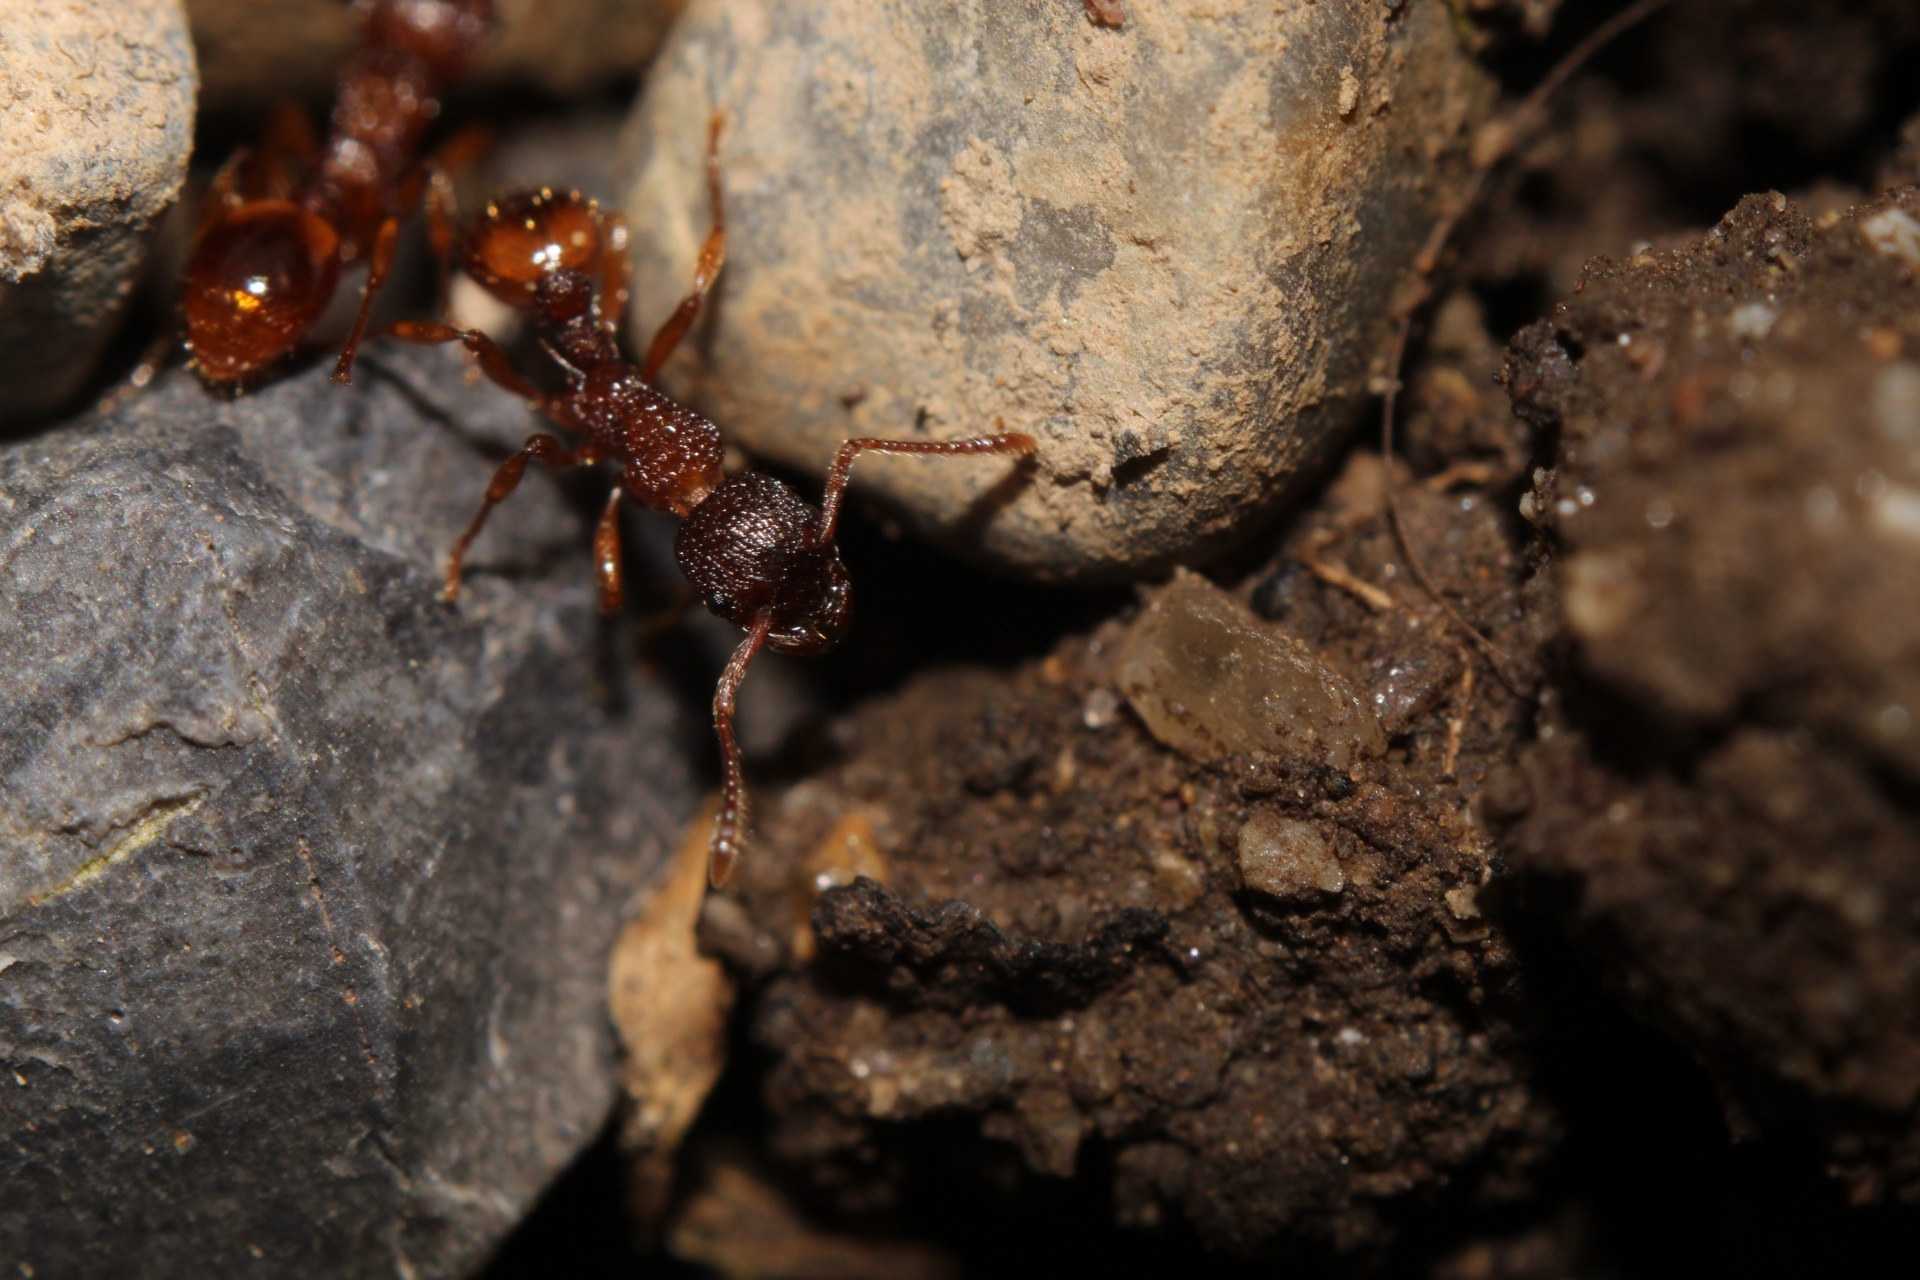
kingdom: Animalia
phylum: Arthropoda
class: Insecta
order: Hymenoptera
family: Formicidae
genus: Myrmica
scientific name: Myrmica ruginodis
